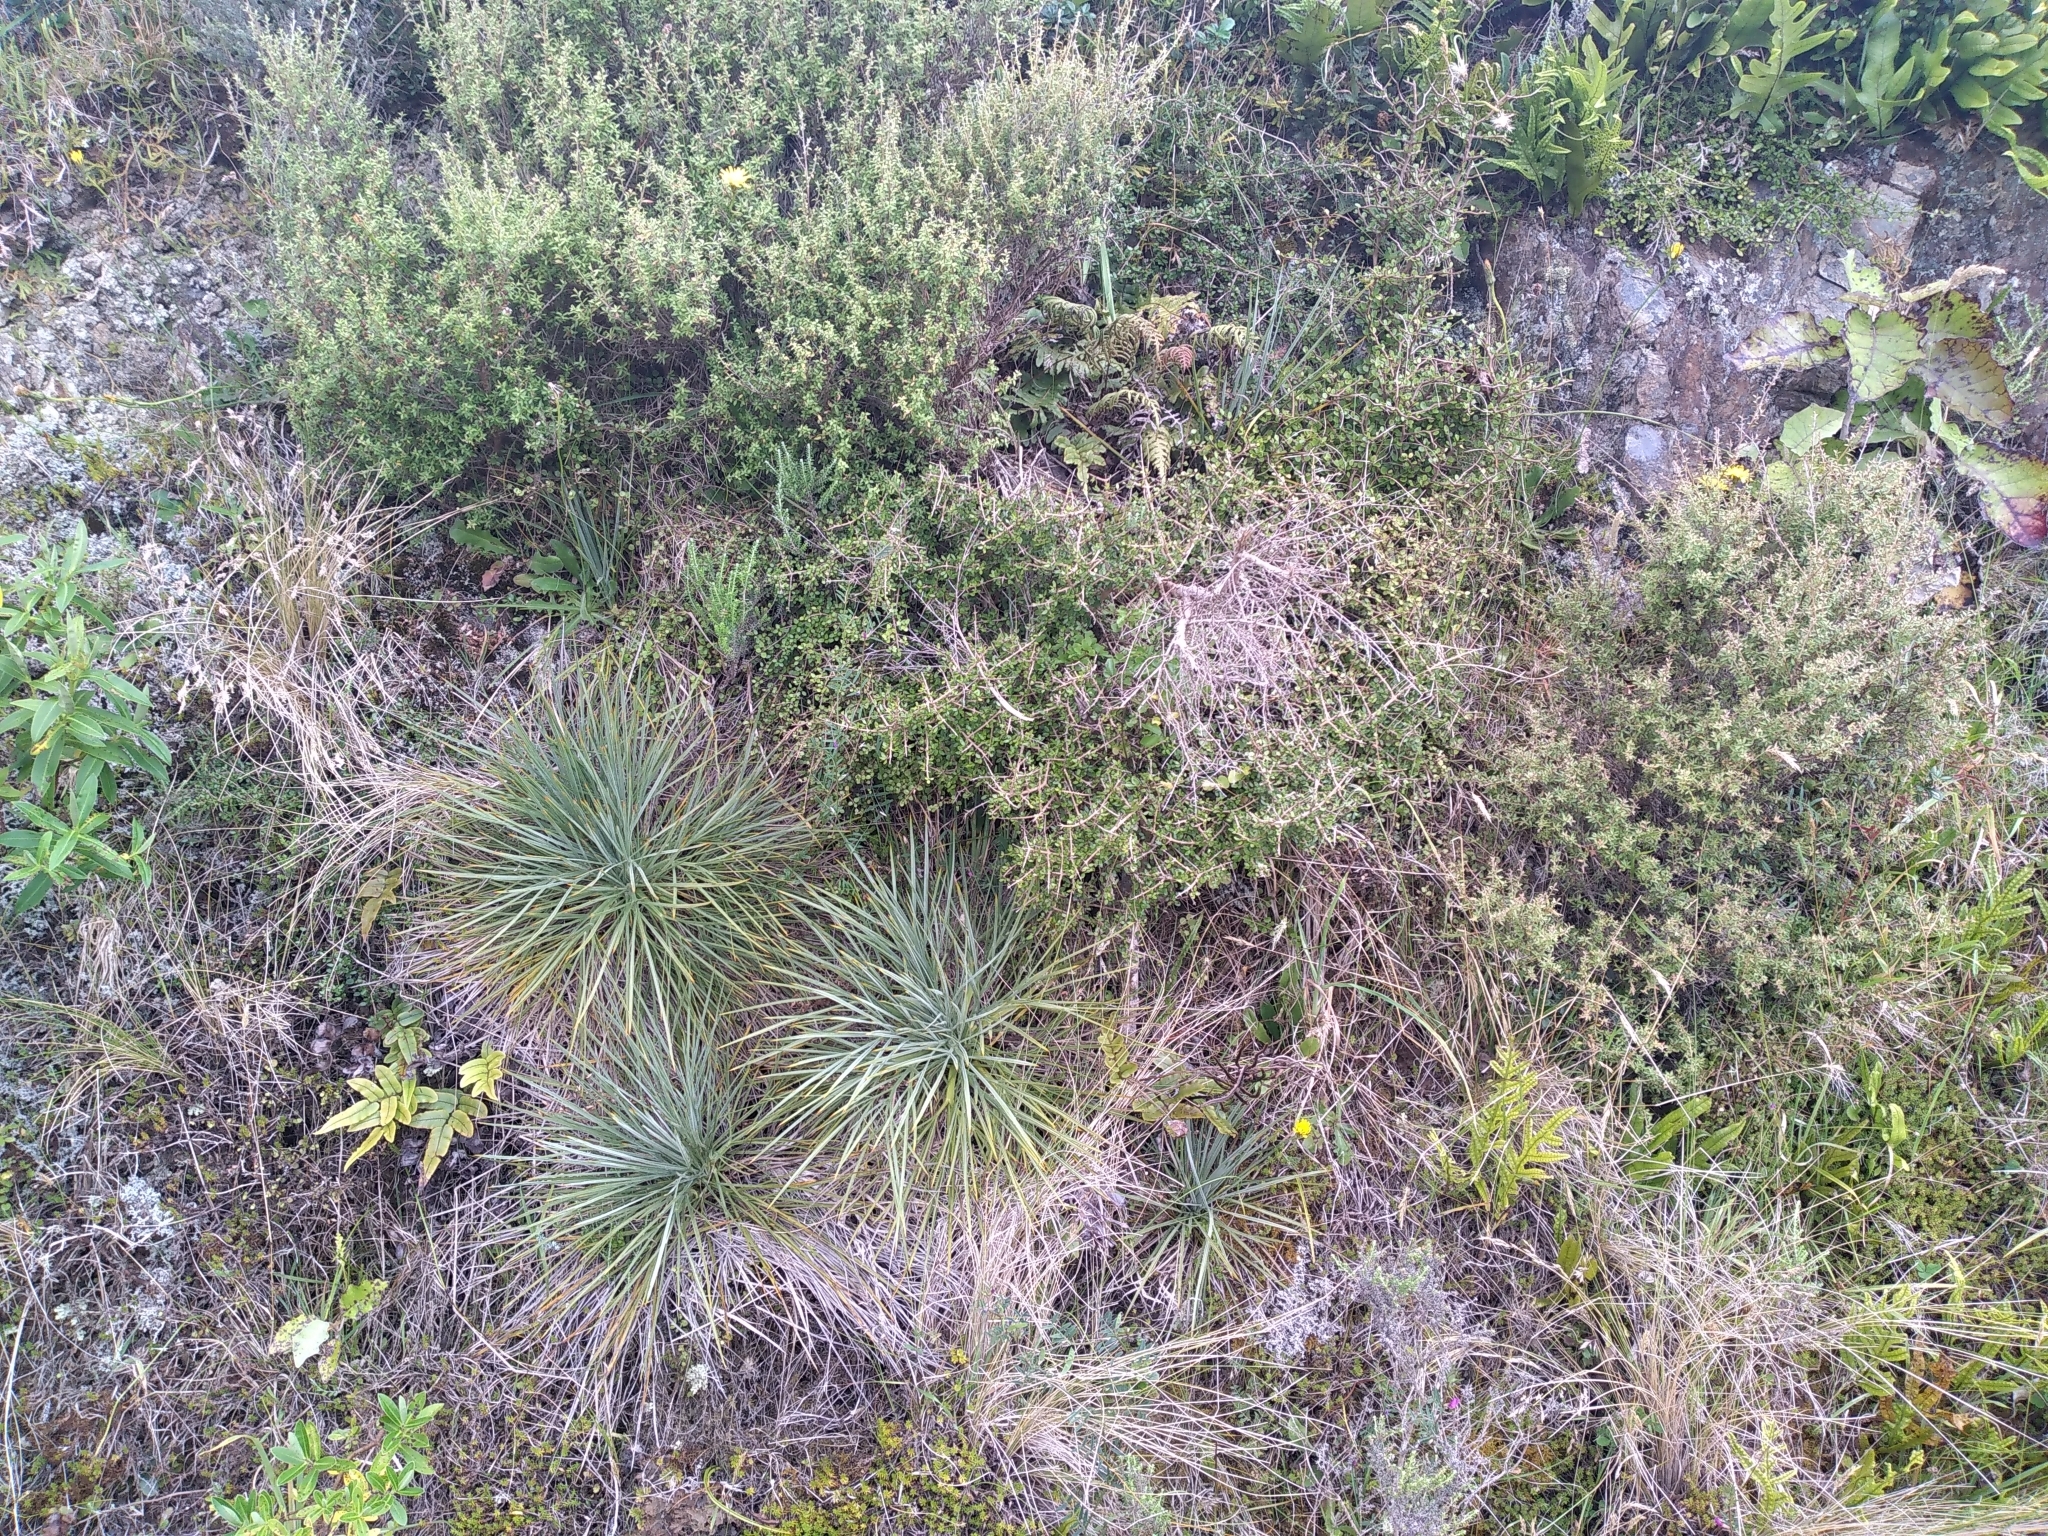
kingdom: Plantae
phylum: Tracheophyta
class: Magnoliopsida
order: Apiales
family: Apiaceae
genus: Aciphylla
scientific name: Aciphylla squarrosa
